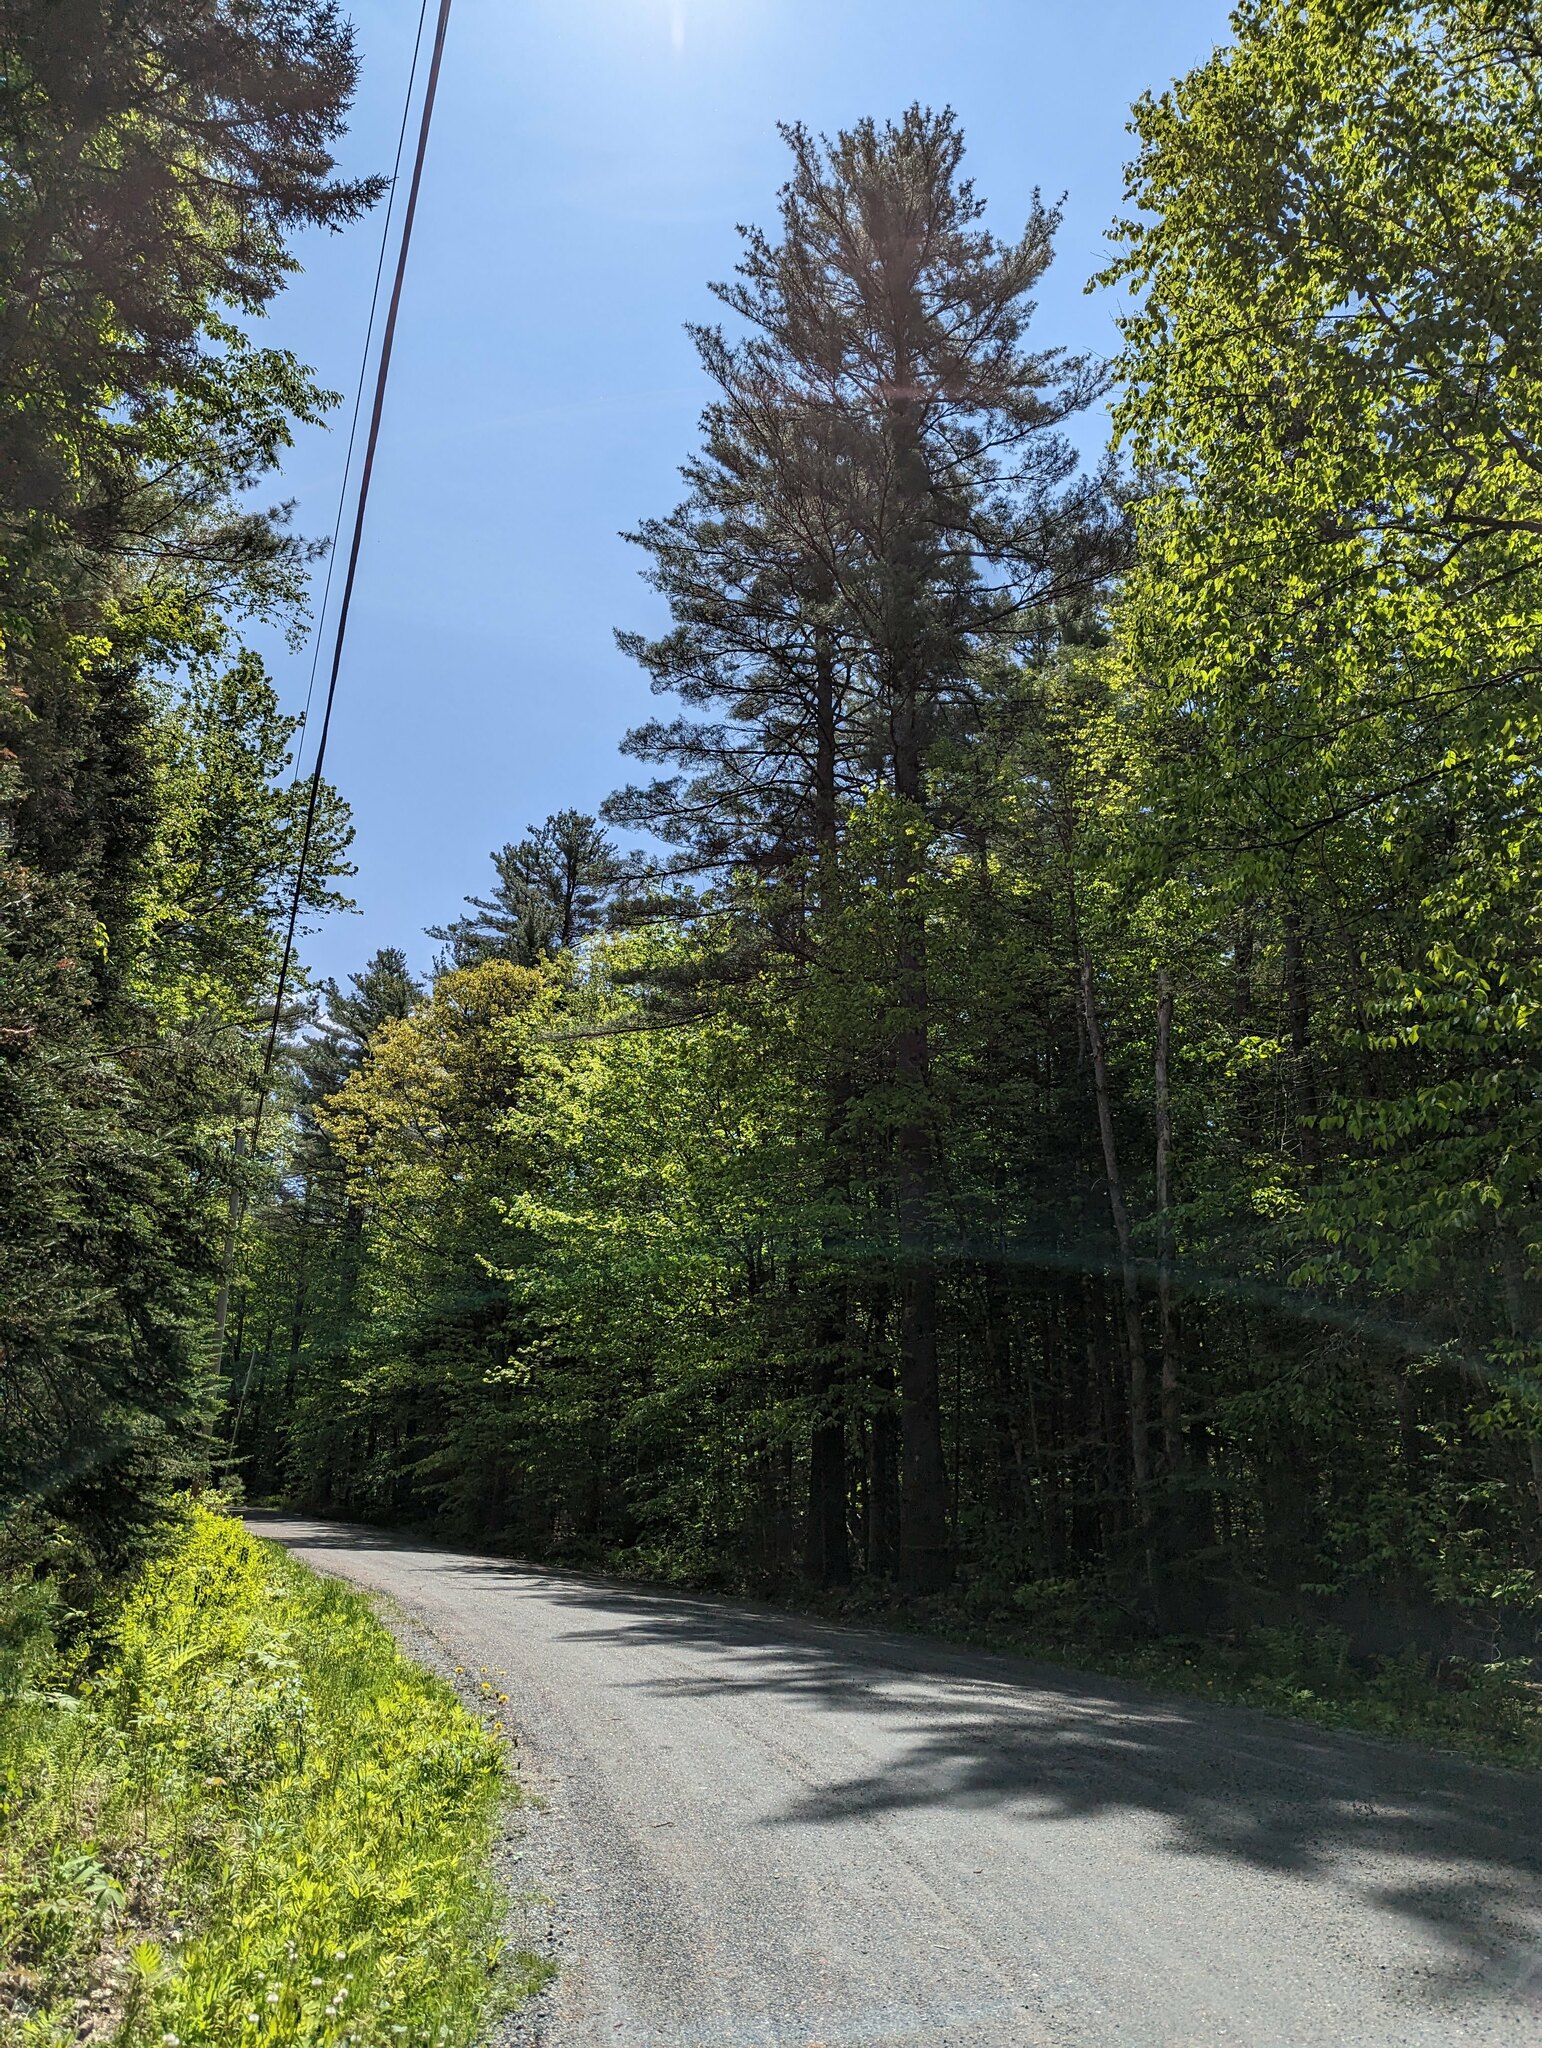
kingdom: Plantae
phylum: Tracheophyta
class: Pinopsida
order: Pinales
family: Pinaceae
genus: Pinus
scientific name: Pinus strobus
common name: Weymouth pine
